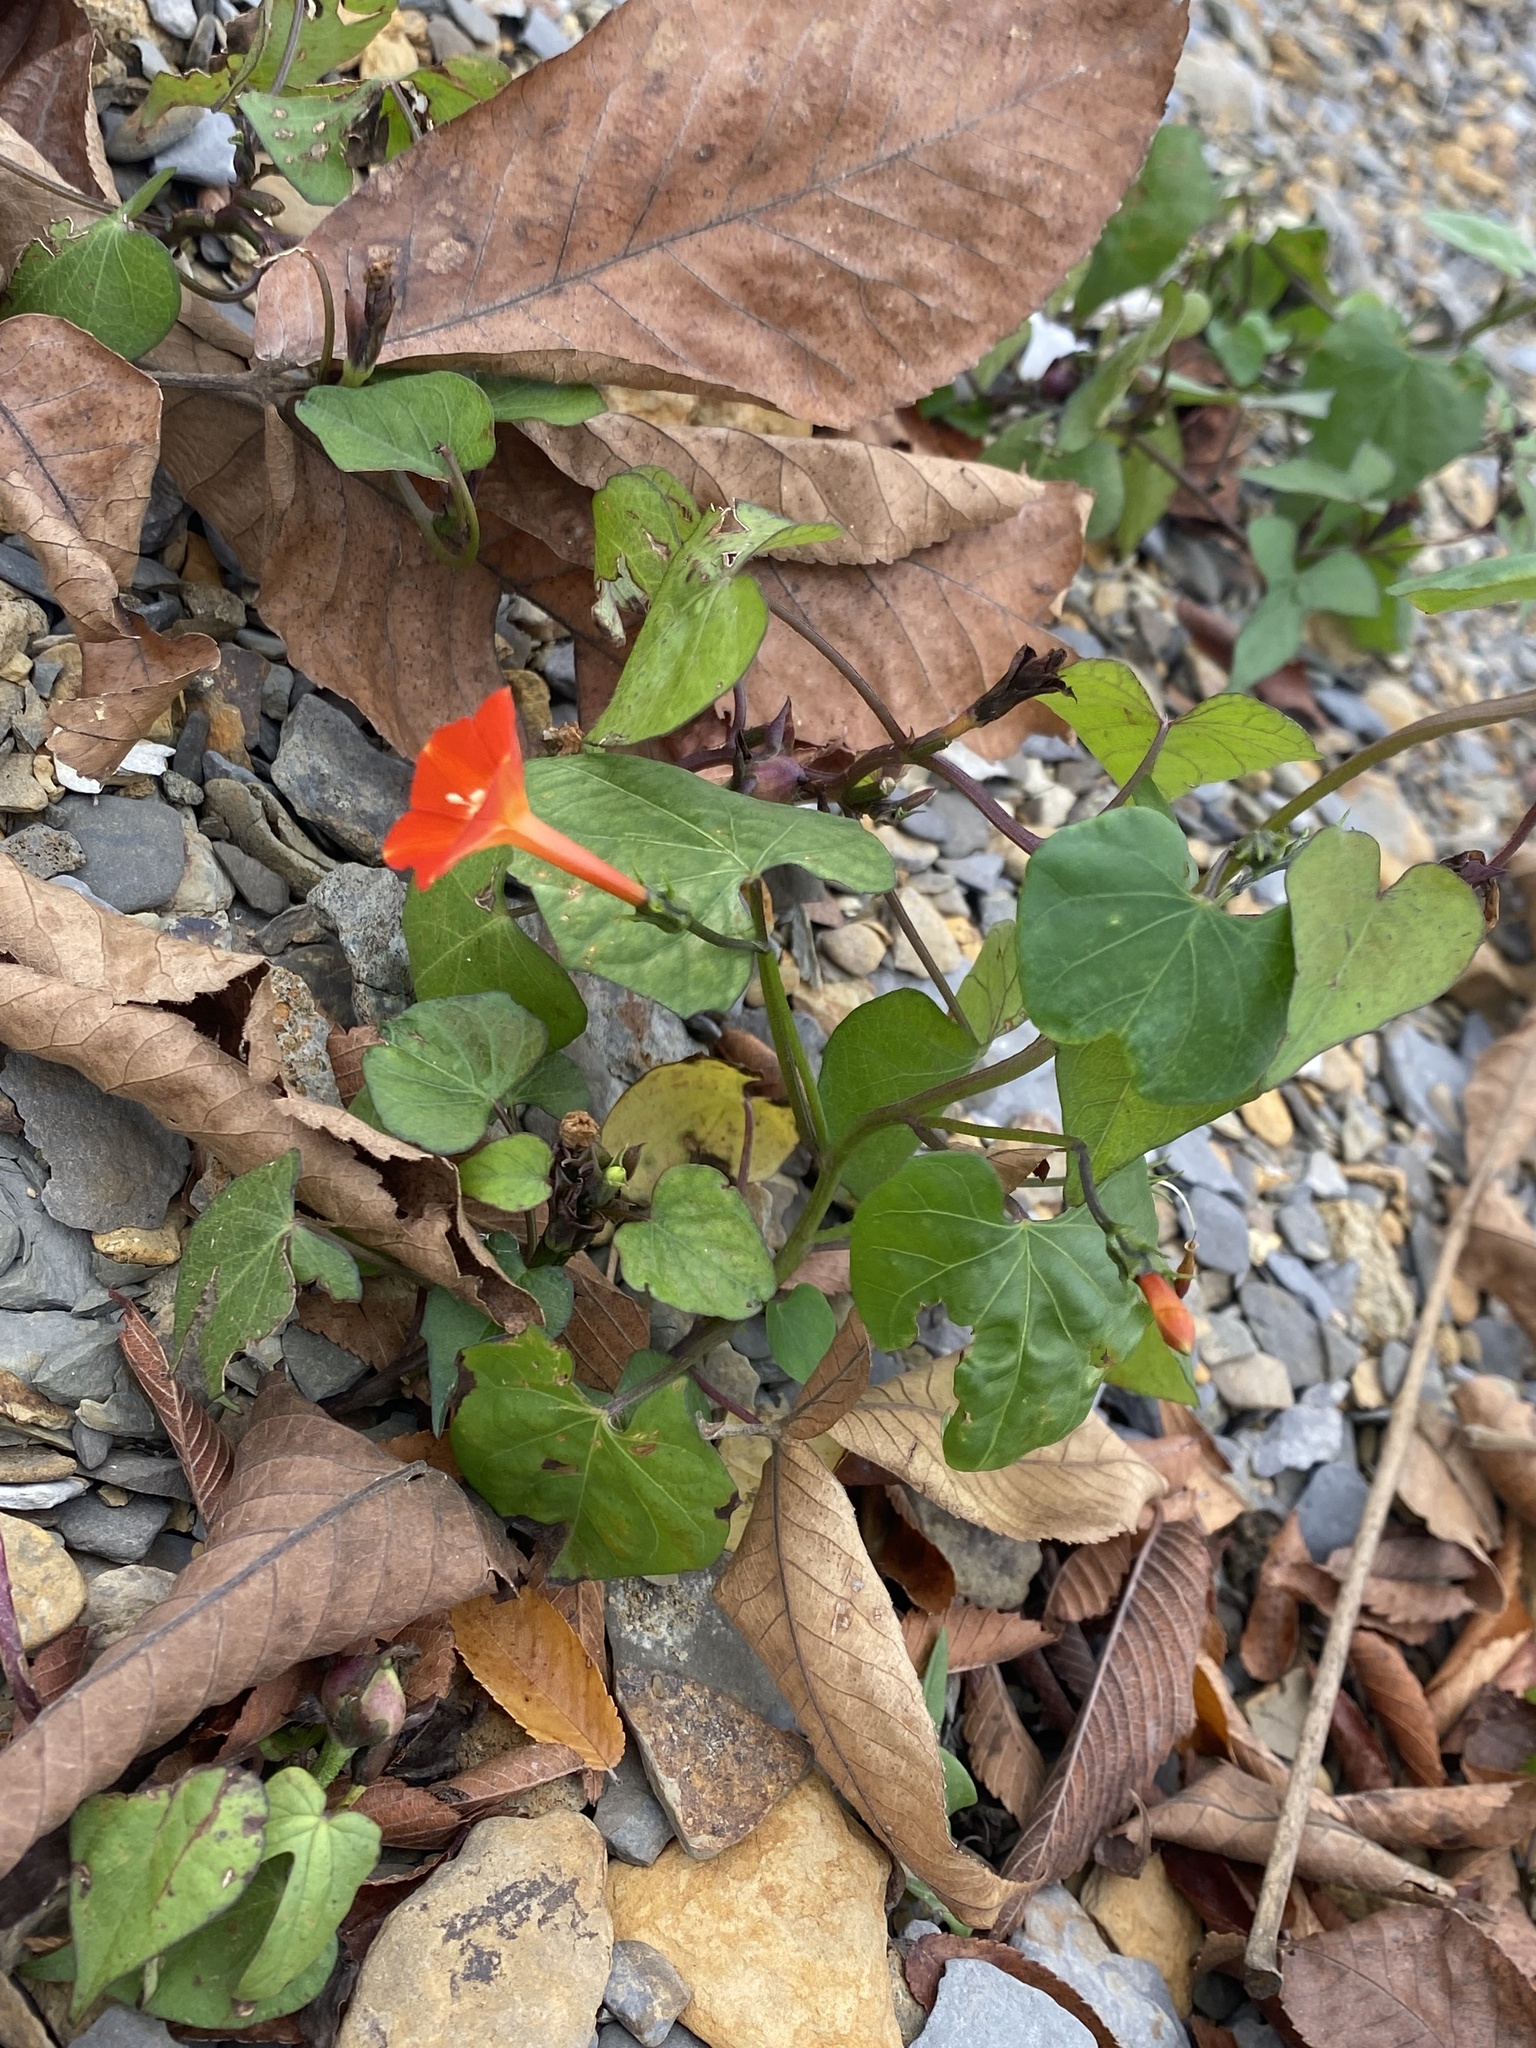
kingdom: Plantae
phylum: Tracheophyta
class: Magnoliopsida
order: Solanales
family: Convolvulaceae
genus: Ipomoea
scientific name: Ipomoea coccinea
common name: Red morning-glory
